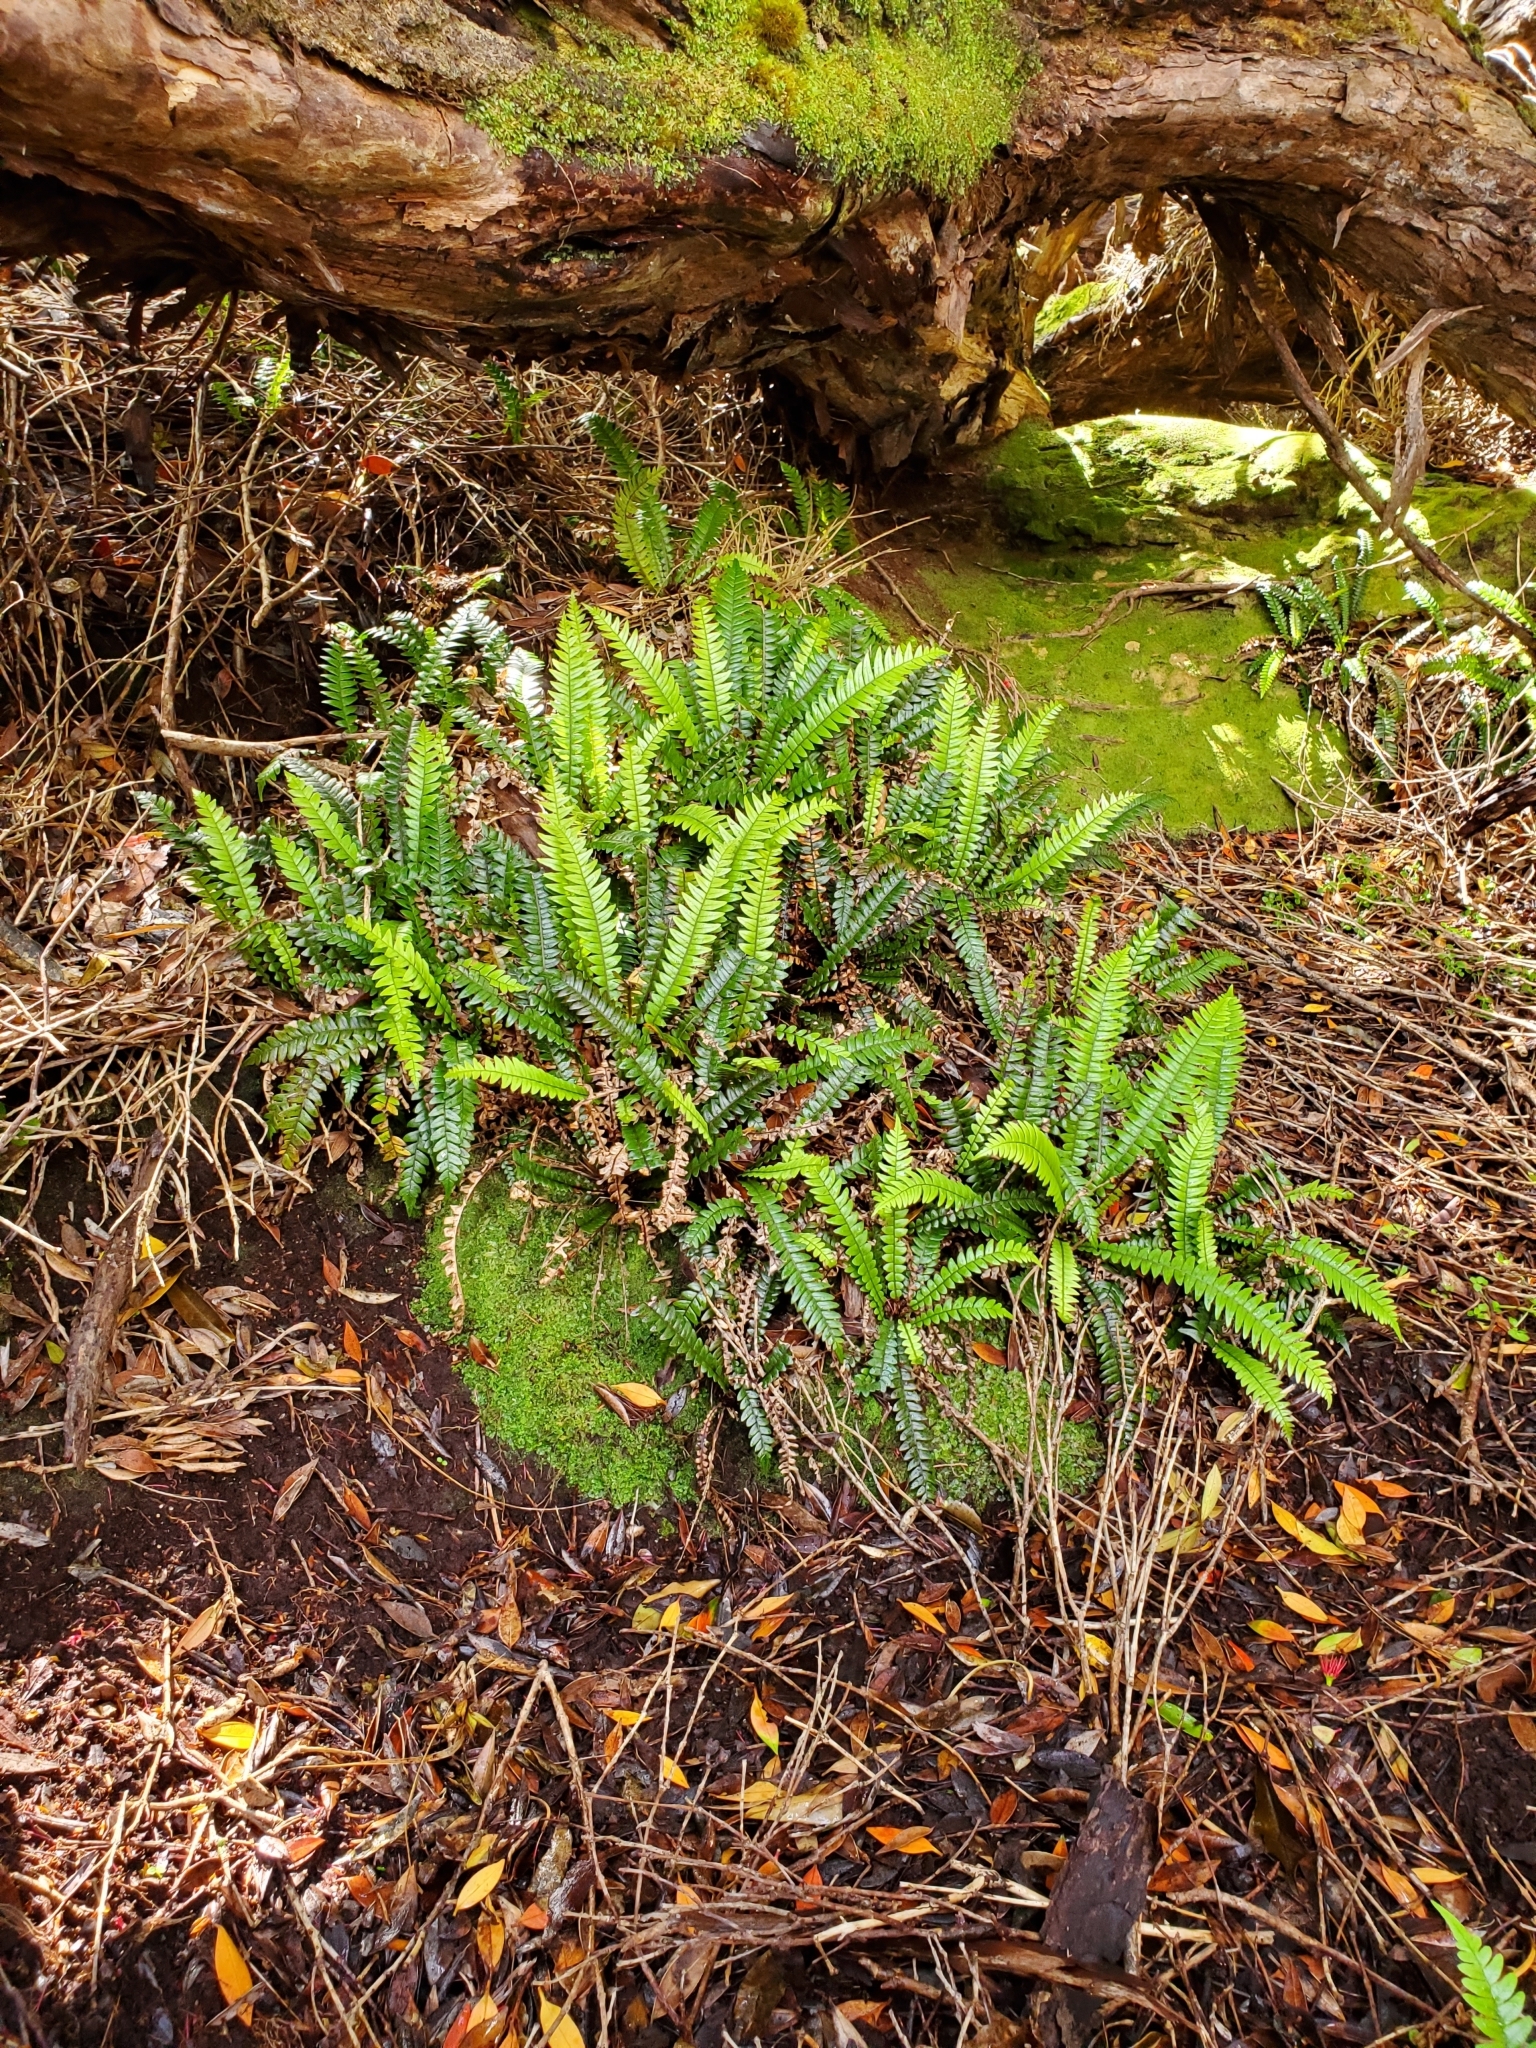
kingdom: Plantae
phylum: Tracheophyta
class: Polypodiopsida
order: Polypodiales
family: Blechnaceae
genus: Austroblechnum
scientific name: Austroblechnum durum
